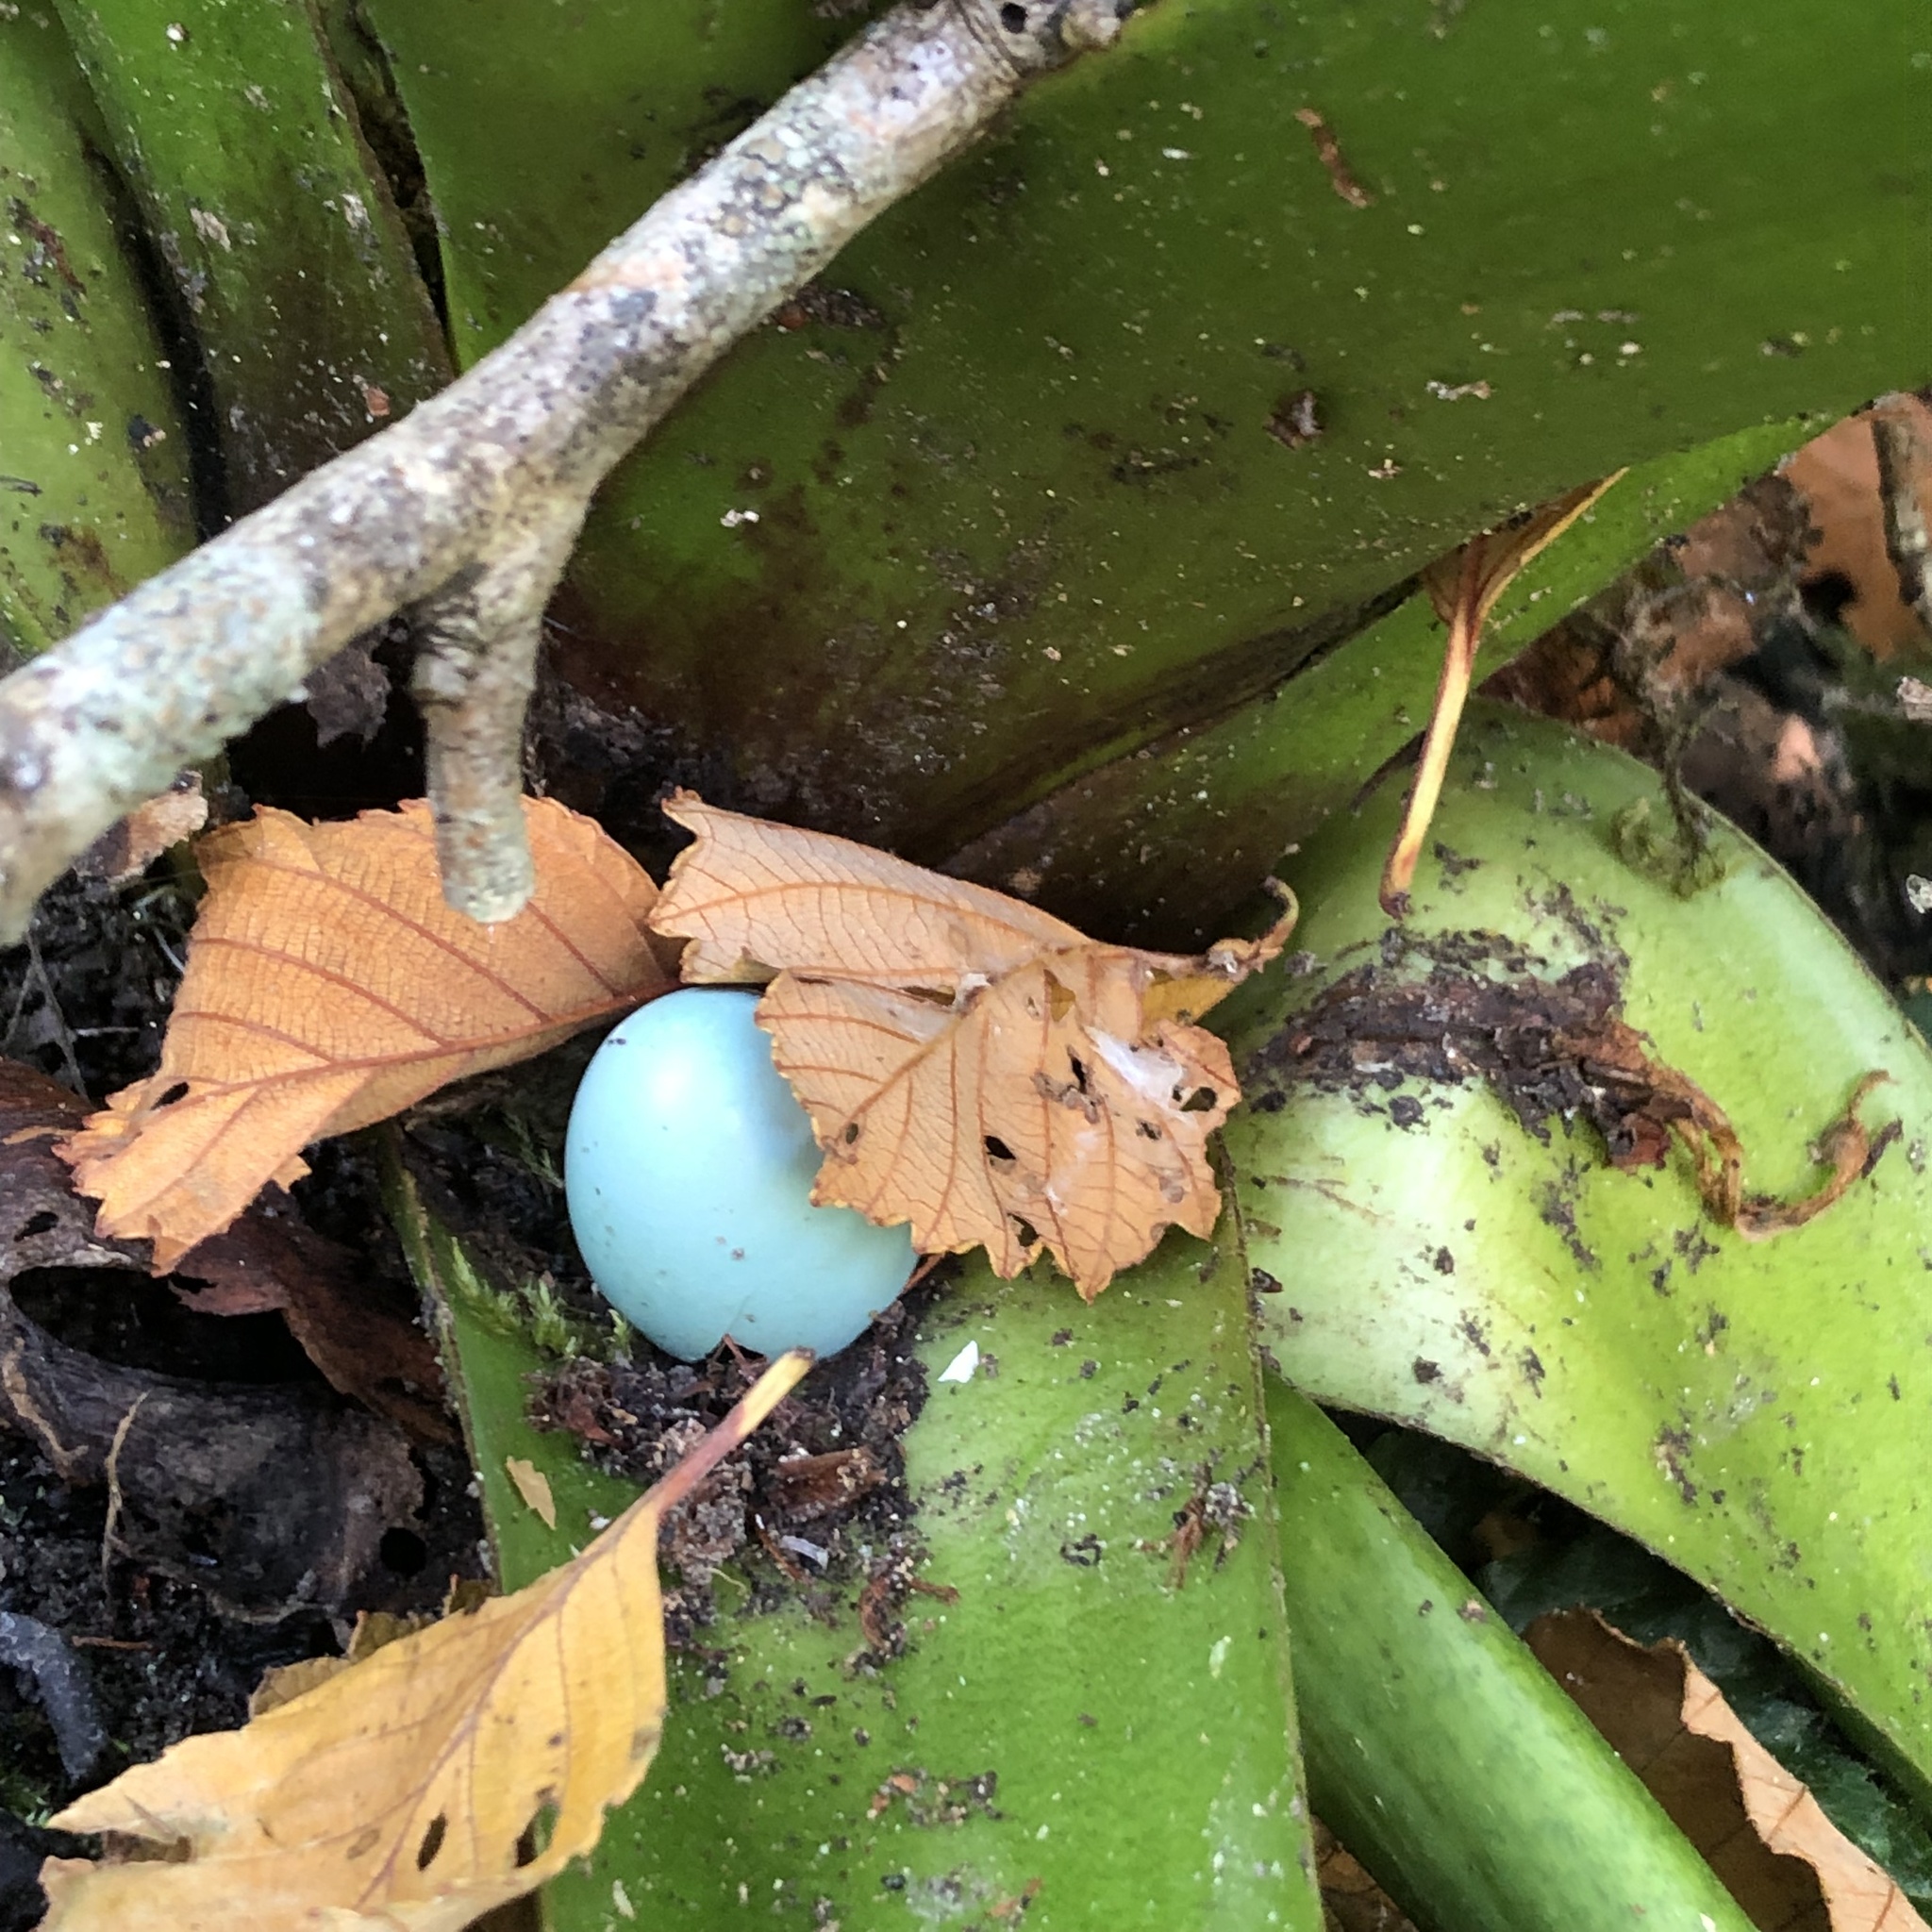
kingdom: Animalia
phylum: Chordata
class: Aves
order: Passeriformes
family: Turdidae
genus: Turdus
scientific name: Turdus migratorius
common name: American robin
